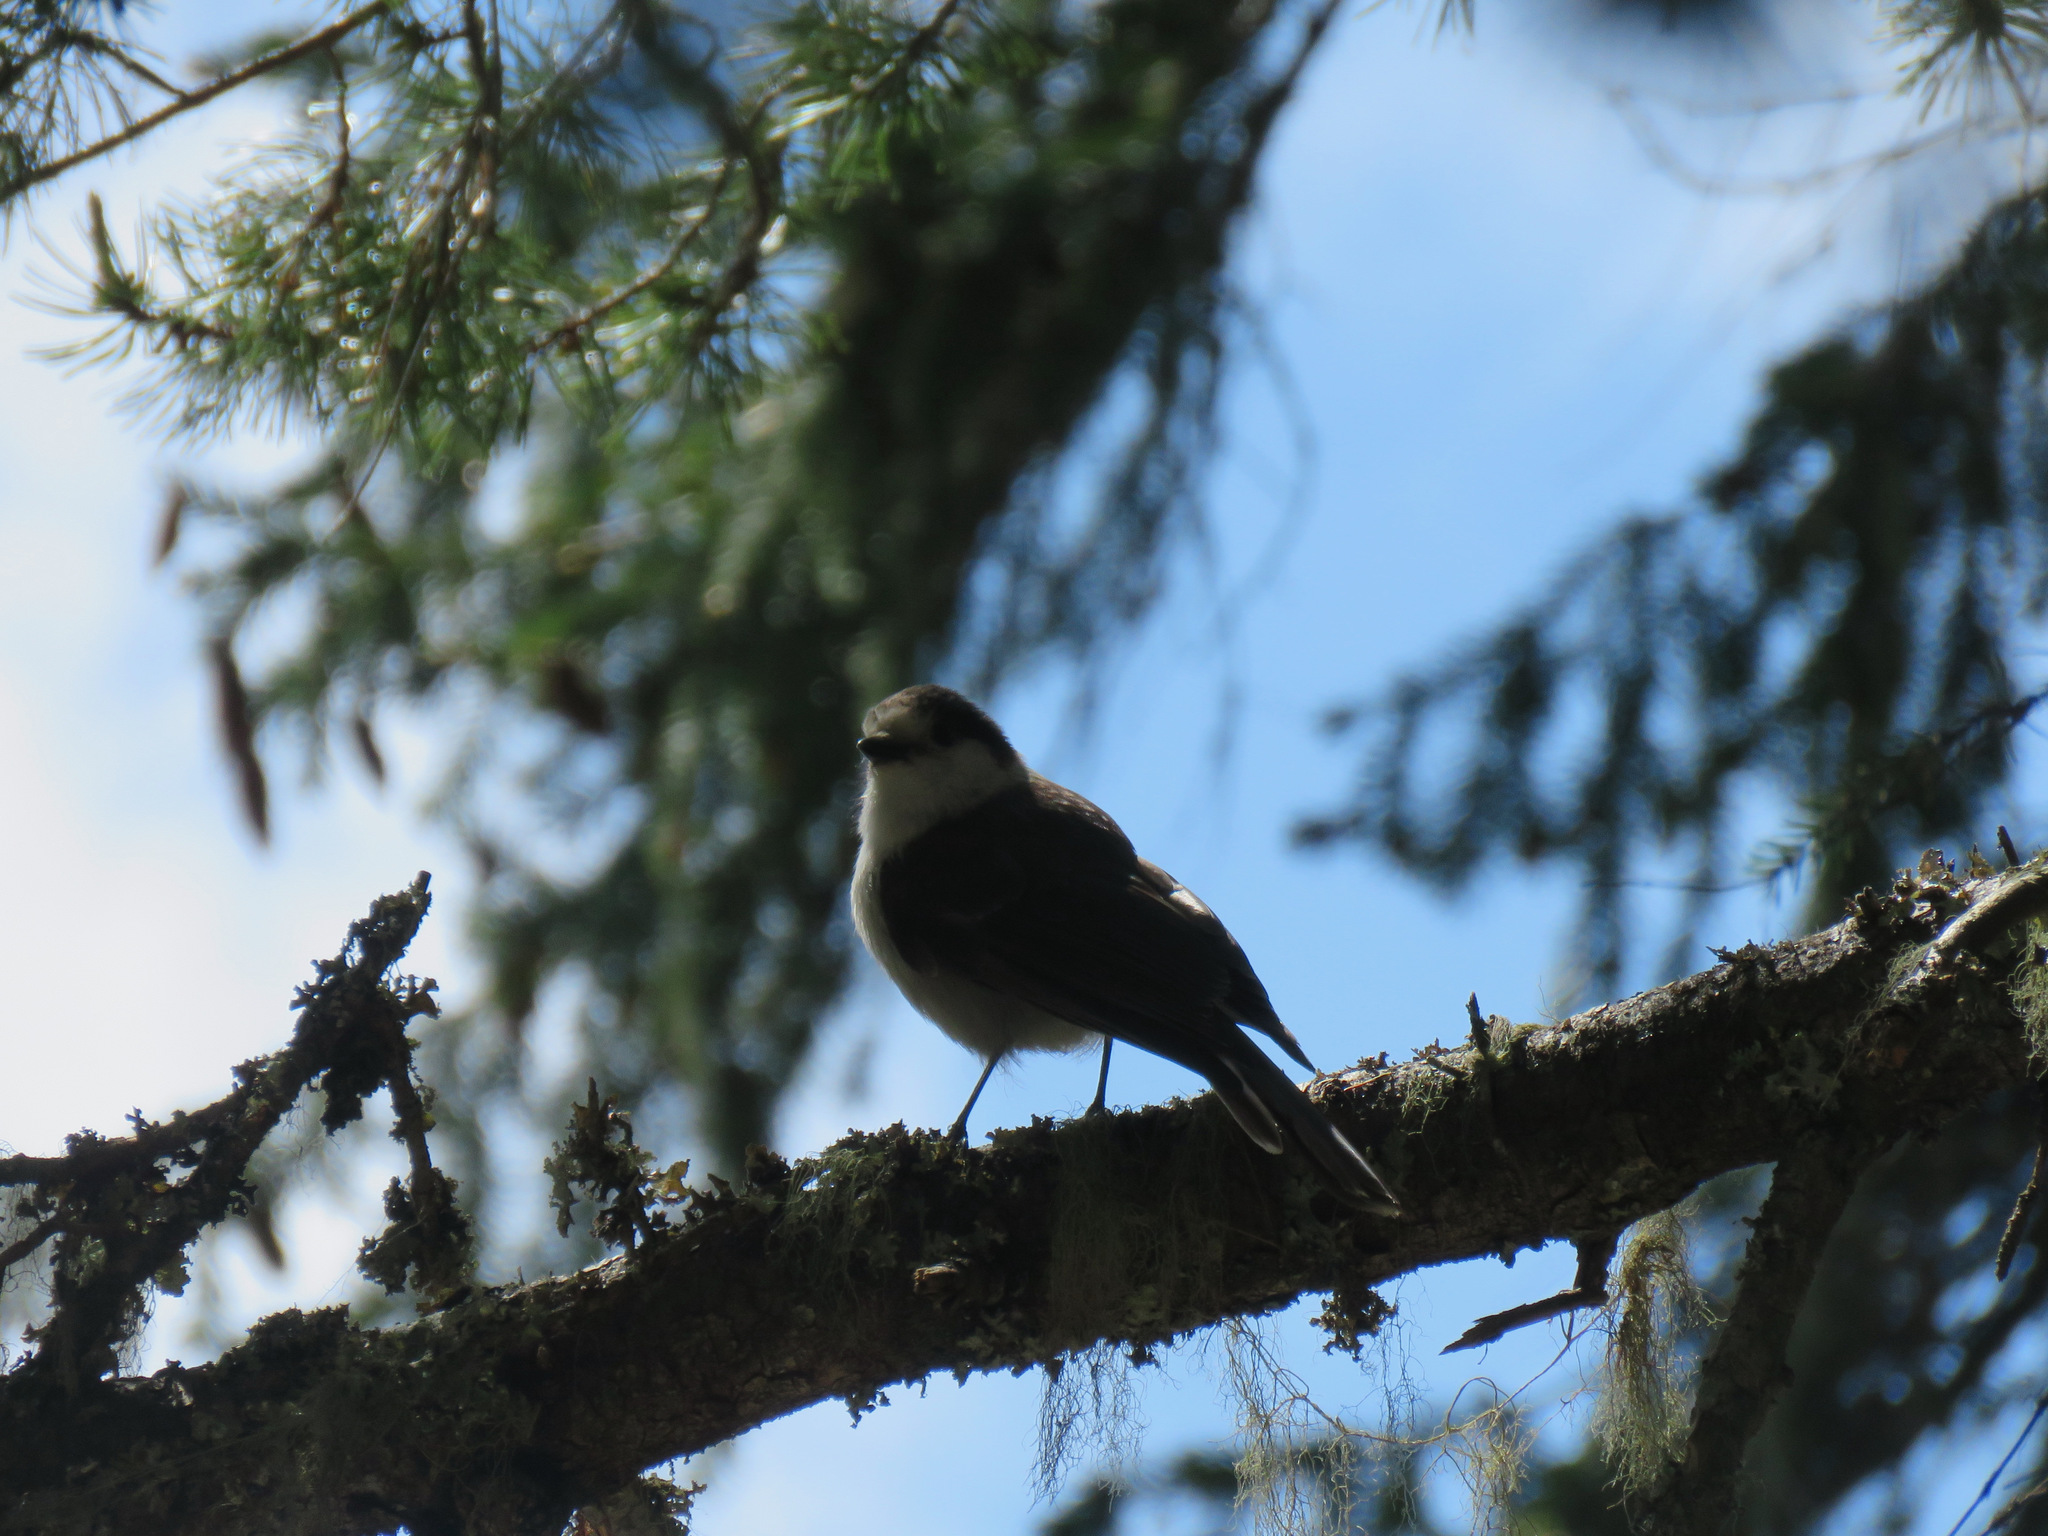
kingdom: Animalia
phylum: Chordata
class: Aves
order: Passeriformes
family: Corvidae
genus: Perisoreus
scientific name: Perisoreus canadensis
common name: Gray jay
